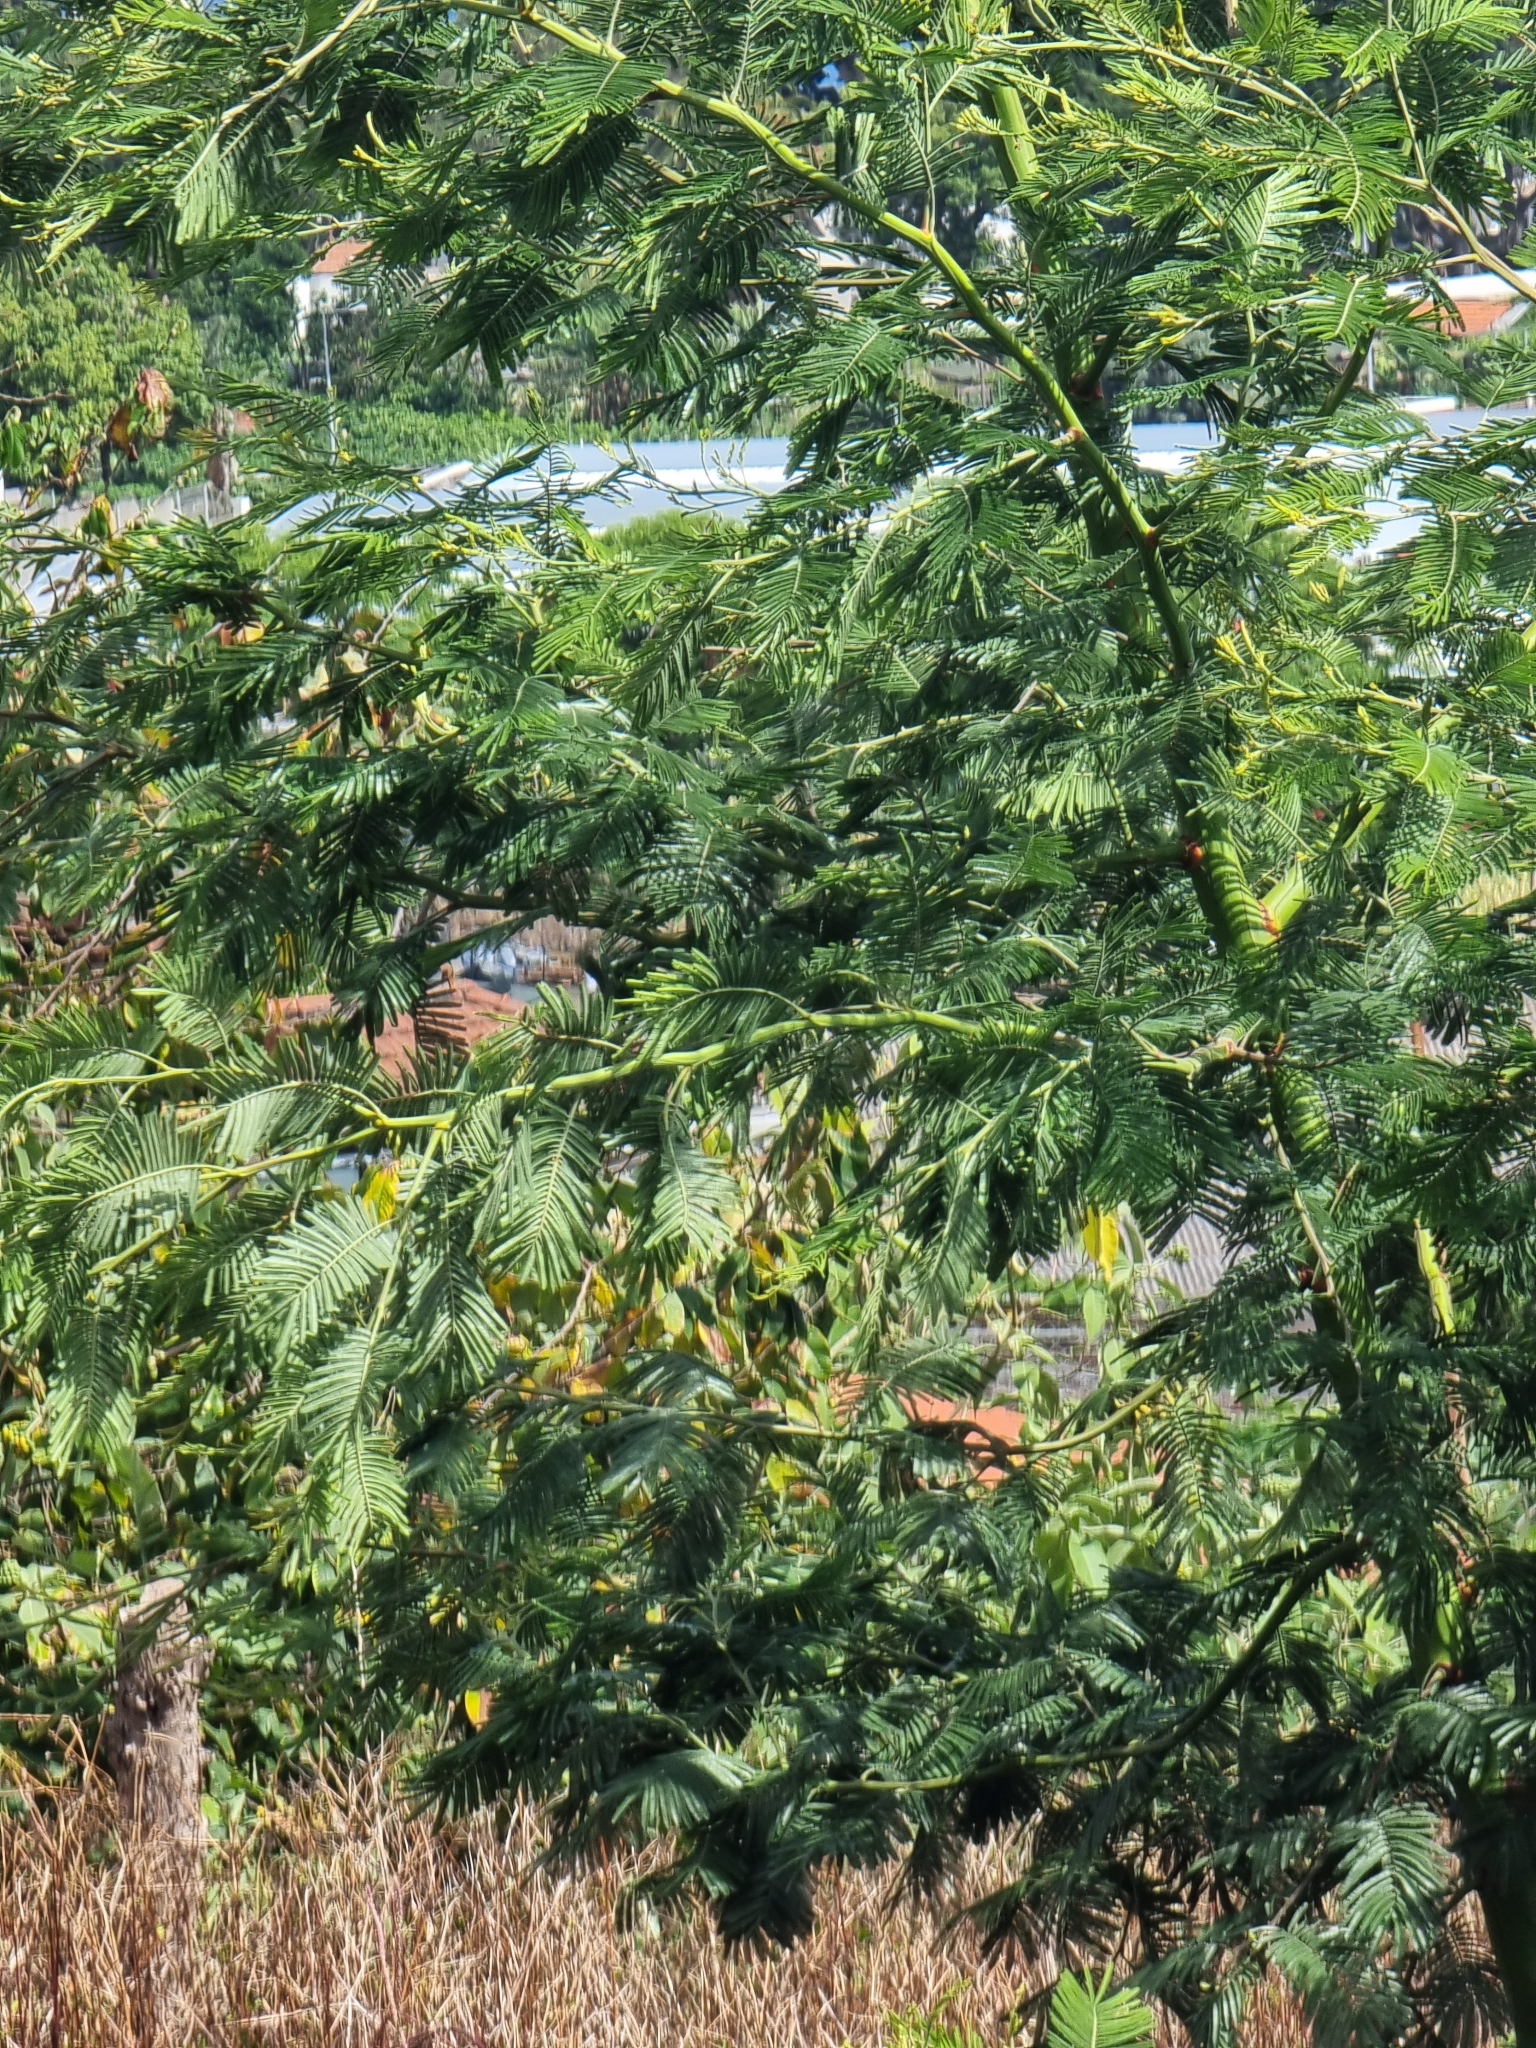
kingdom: Plantae
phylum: Tracheophyta
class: Magnoliopsida
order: Fabales
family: Fabaceae
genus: Acacia
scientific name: Acacia mearnsii
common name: Black wattle
